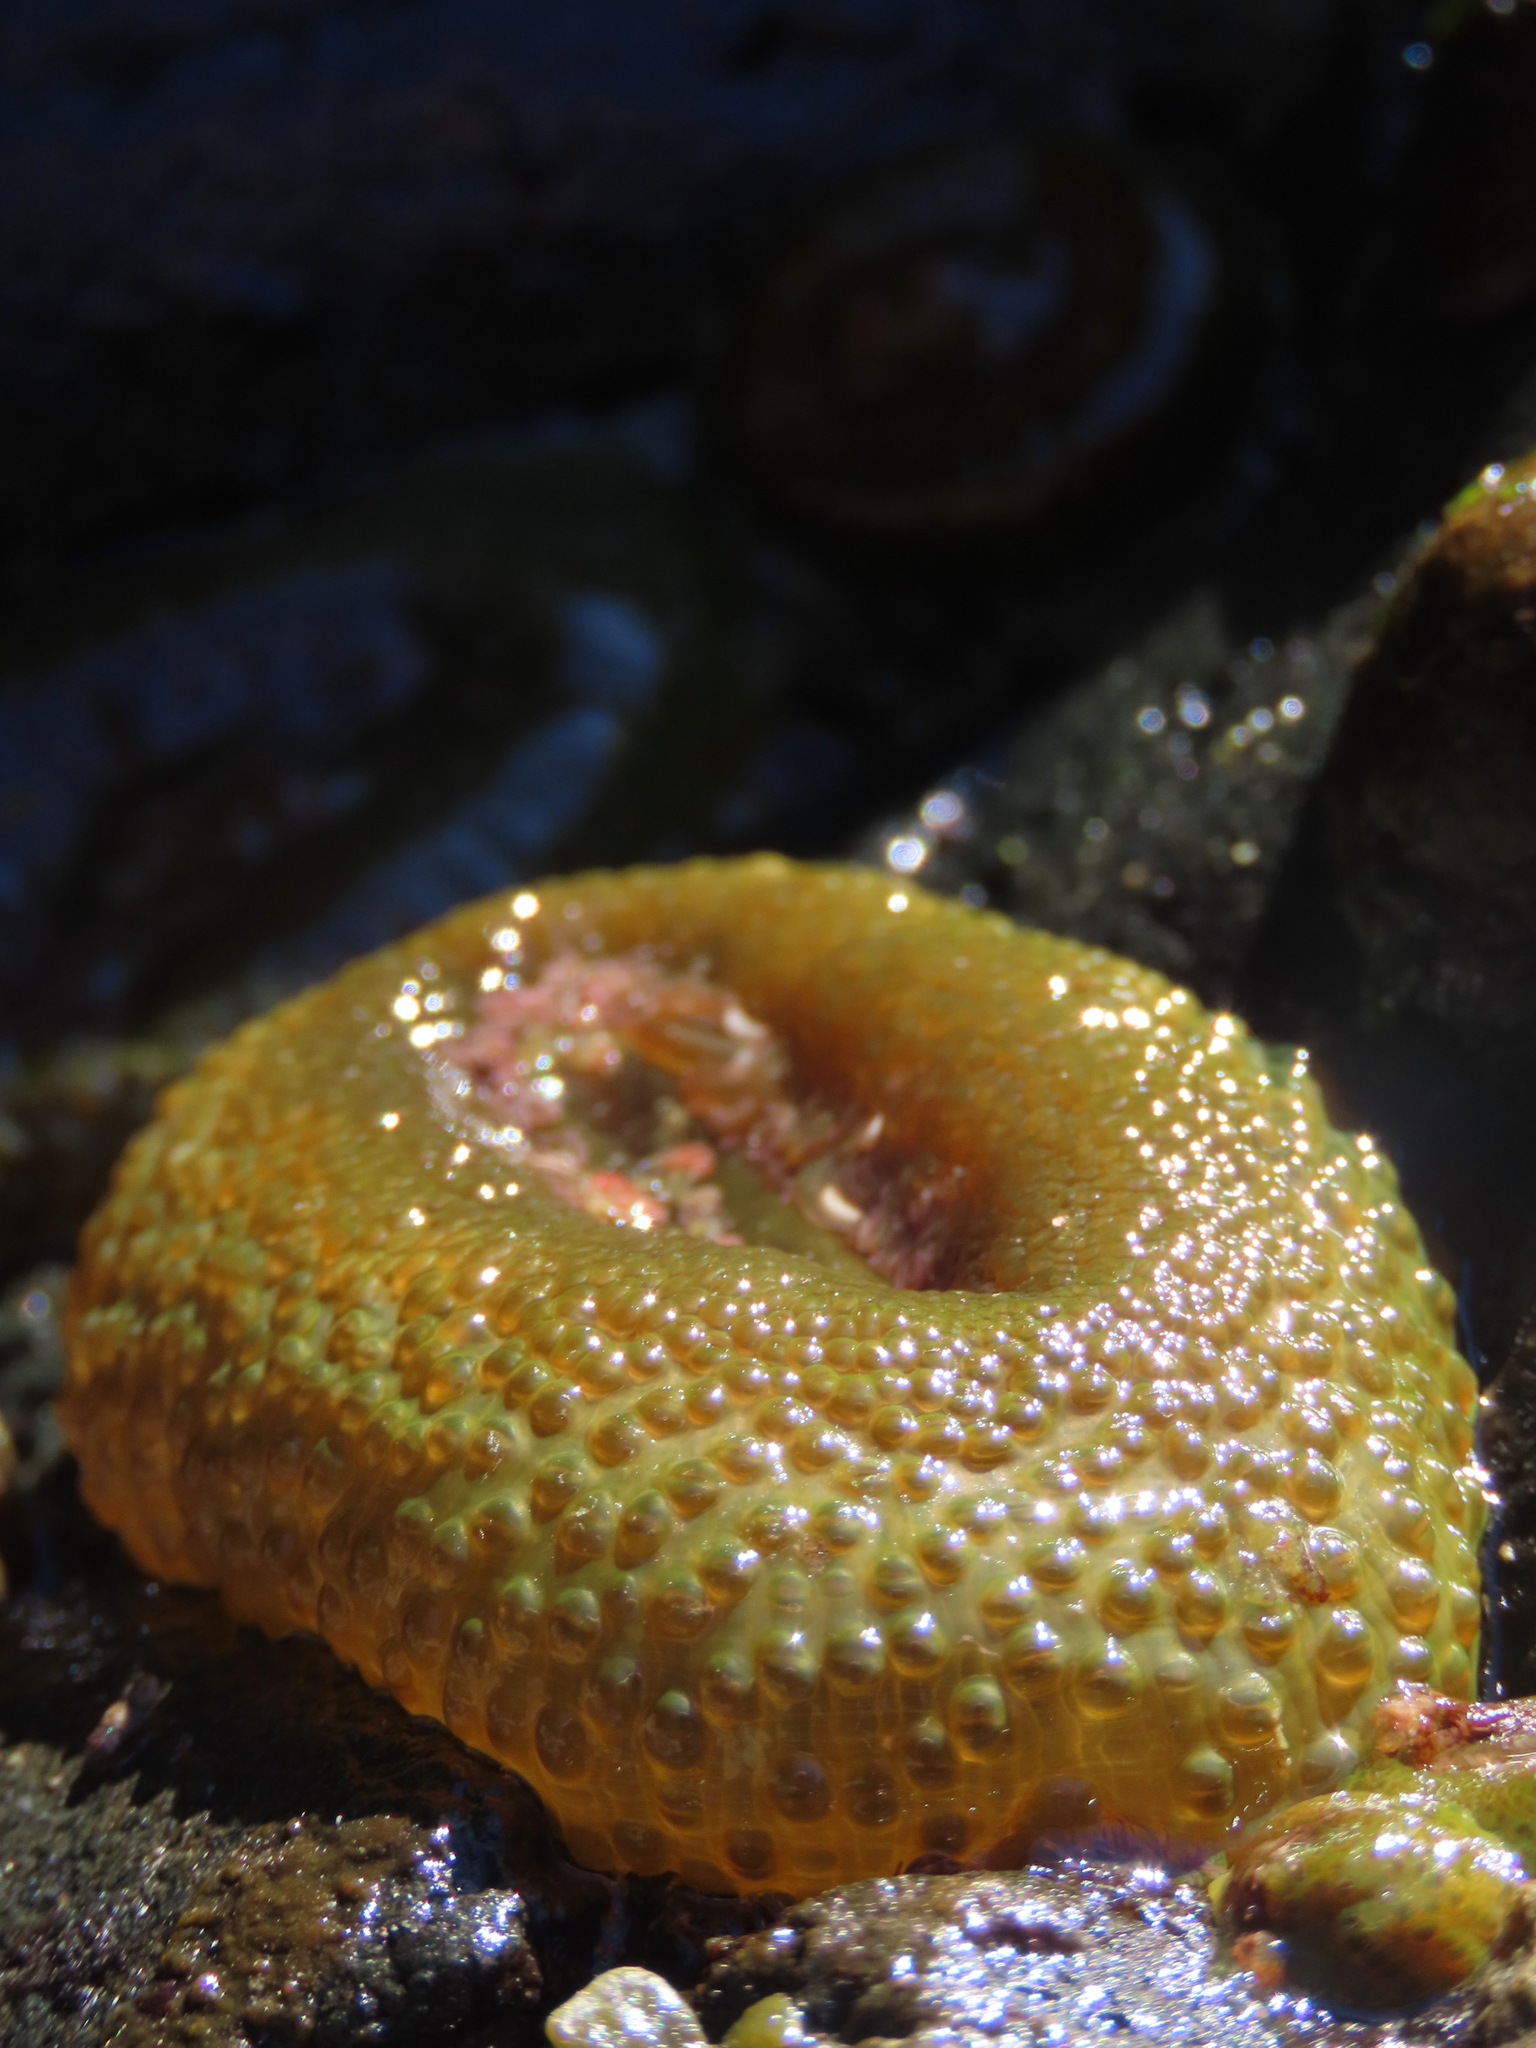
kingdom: Animalia
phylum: Cnidaria
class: Anthozoa
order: Actiniaria
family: Actiniidae
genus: Anthopleura
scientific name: Anthopleura elegantissima
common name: Clonal anemone
